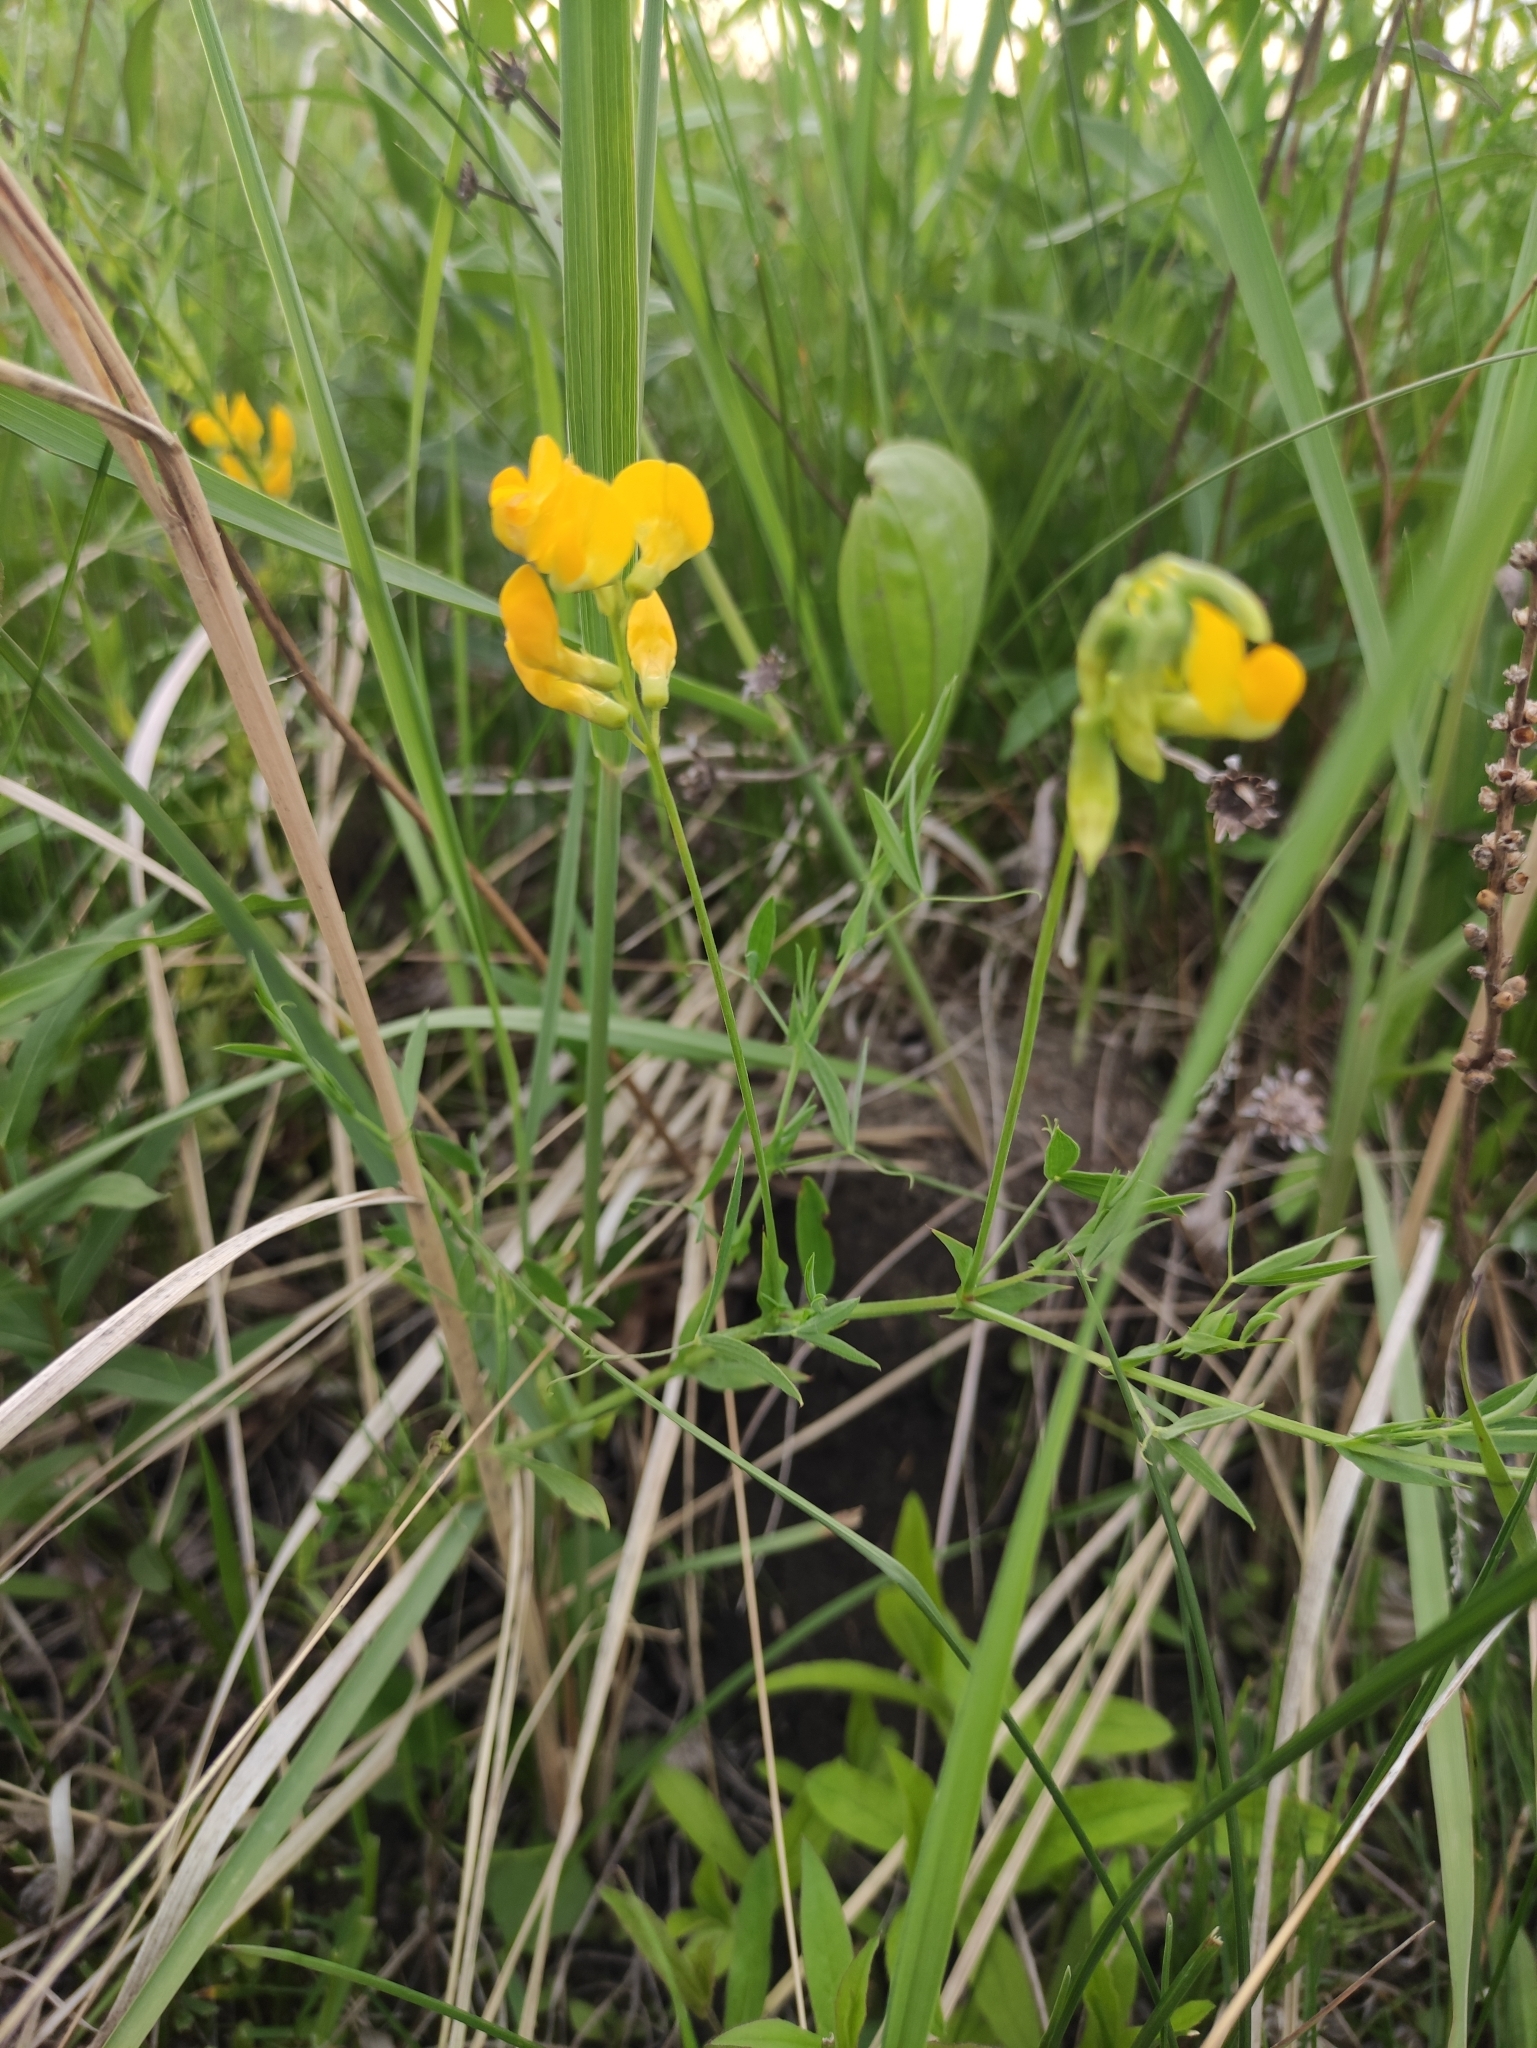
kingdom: Plantae
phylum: Tracheophyta
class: Magnoliopsida
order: Fabales
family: Fabaceae
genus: Lathyrus
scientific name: Lathyrus pratensis
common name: Meadow vetchling
